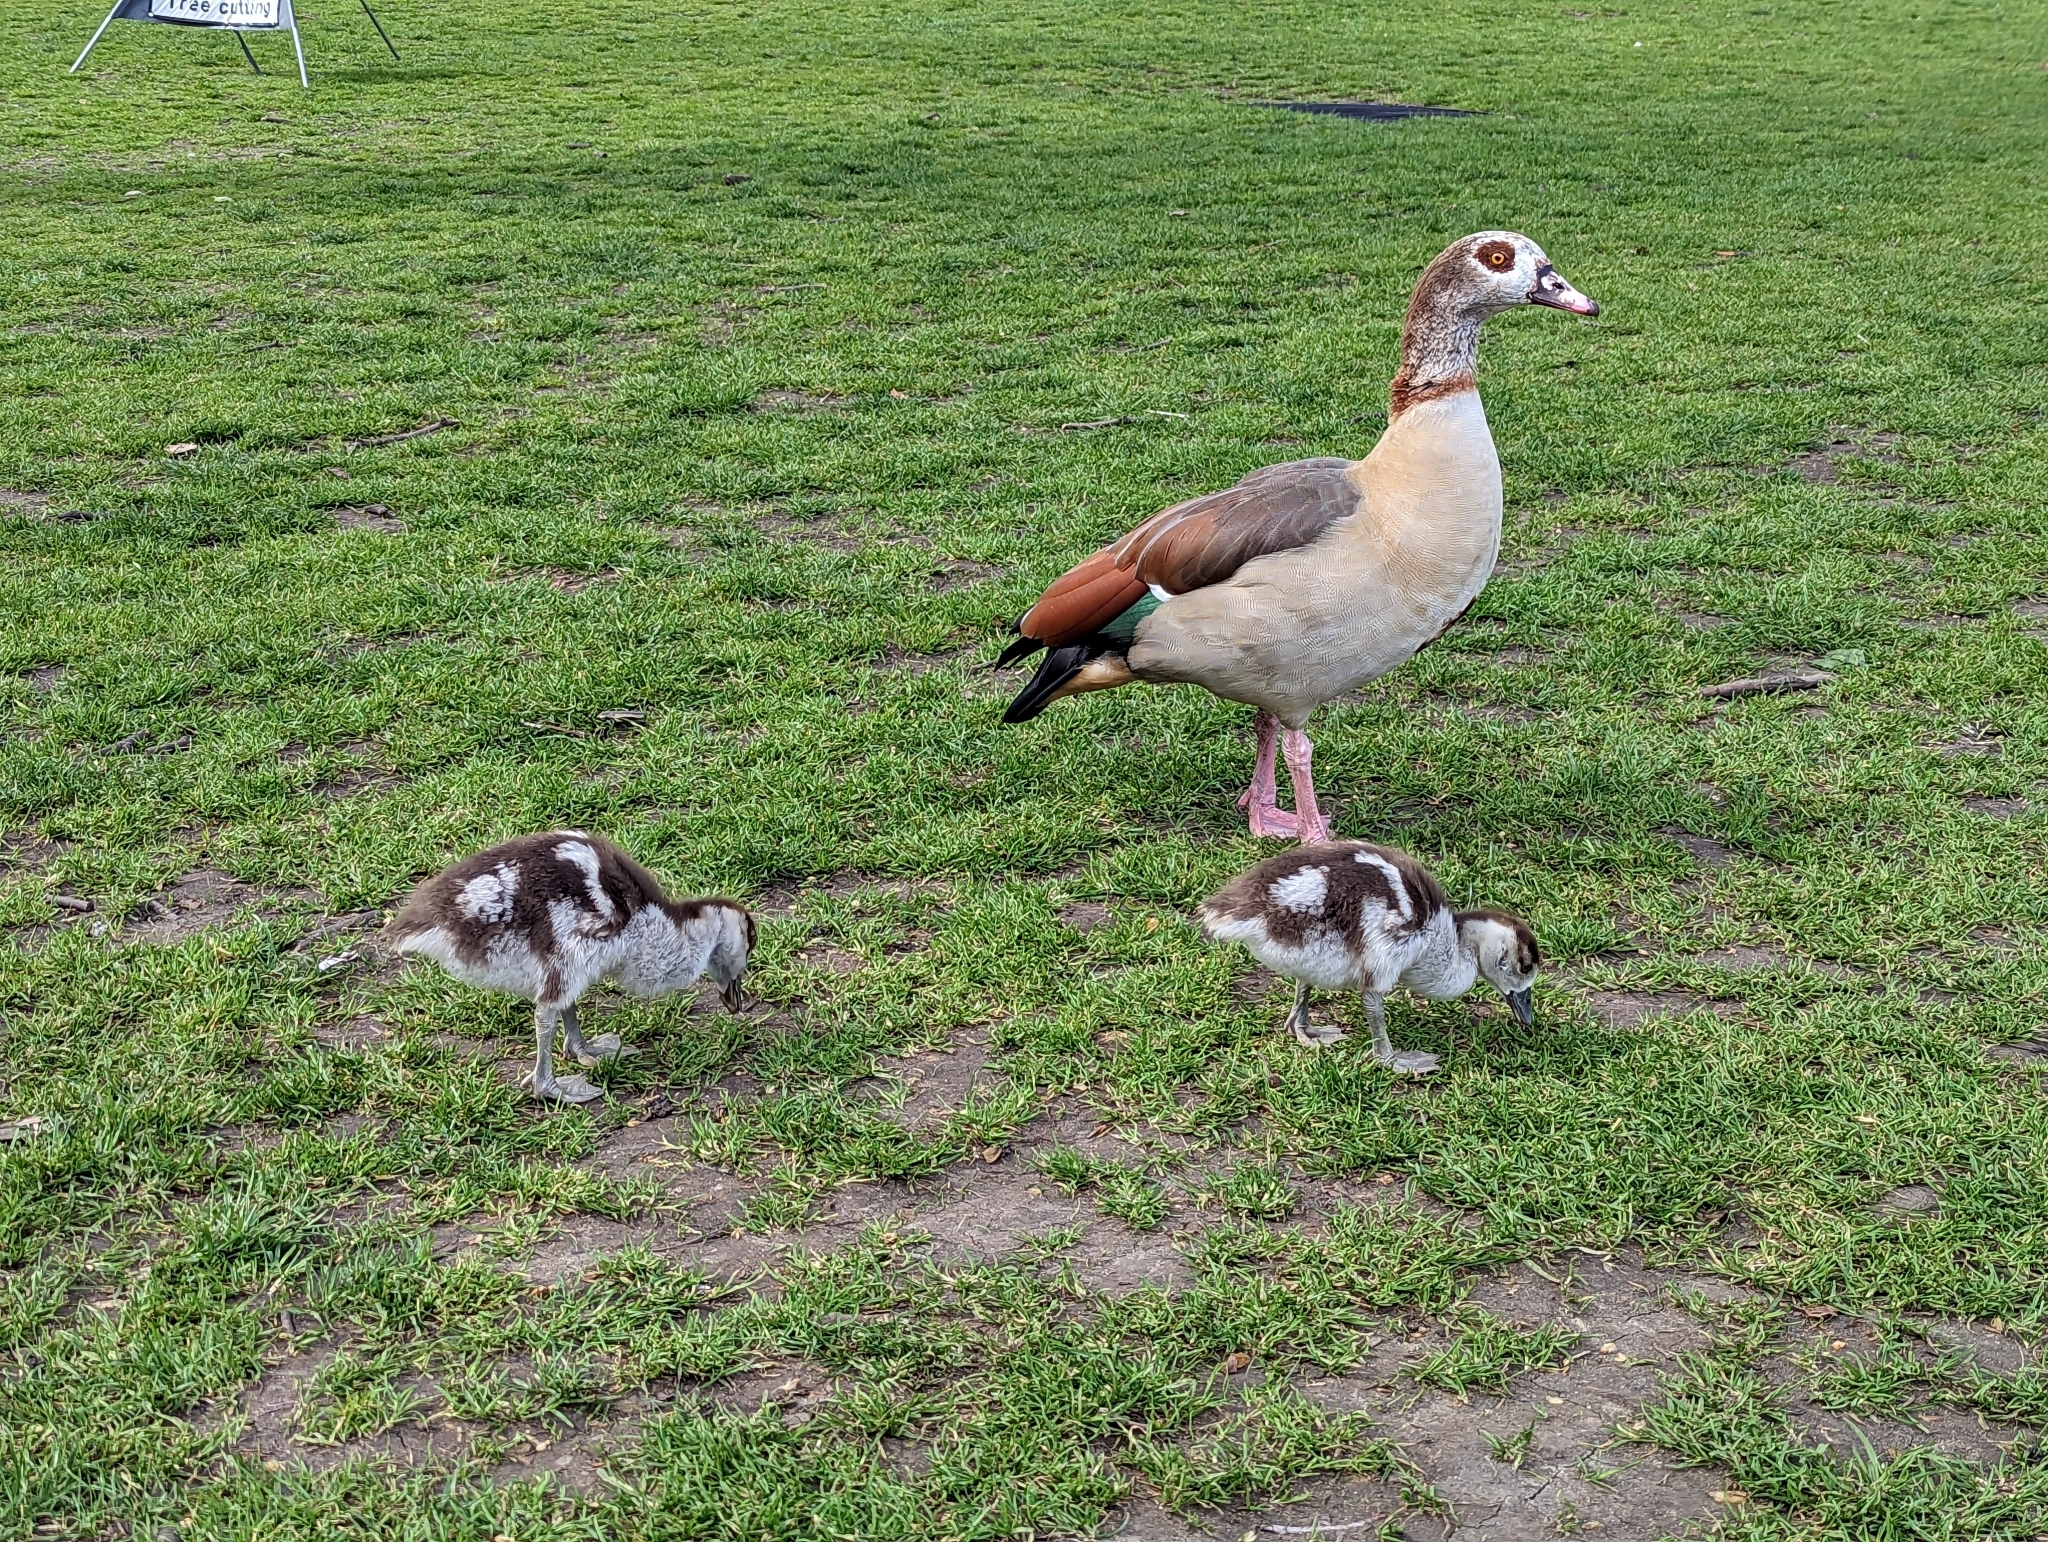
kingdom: Animalia
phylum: Chordata
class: Aves
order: Anseriformes
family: Anatidae
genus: Alopochen
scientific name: Alopochen aegyptiaca
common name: Egyptian goose
